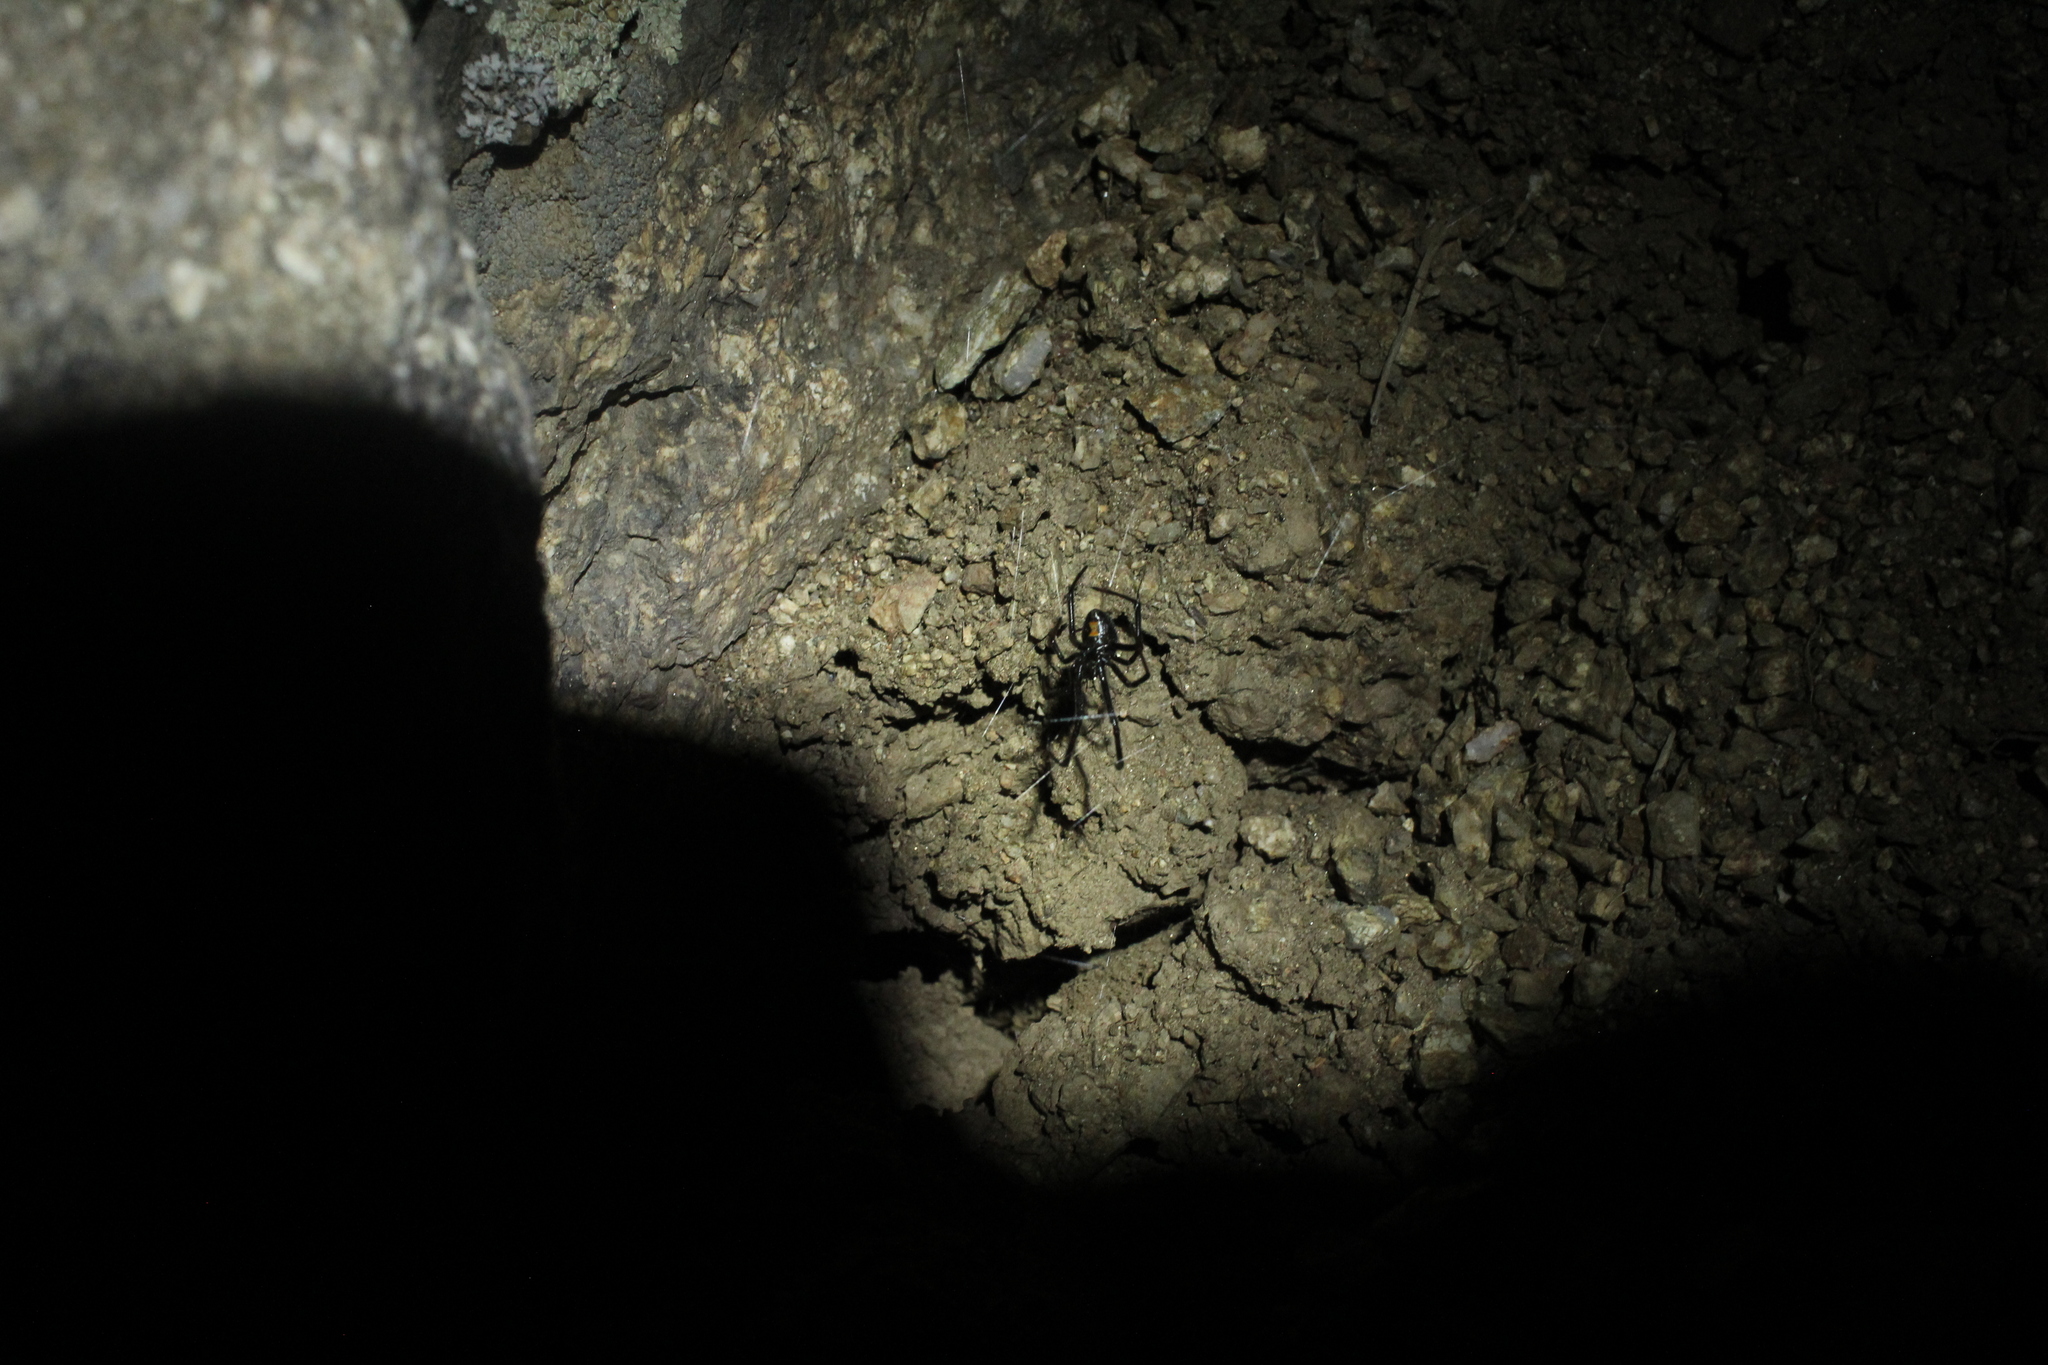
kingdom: Animalia
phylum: Arthropoda
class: Arachnida
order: Araneae
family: Theridiidae
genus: Latrodectus
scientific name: Latrodectus hesperus
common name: Western black widow
